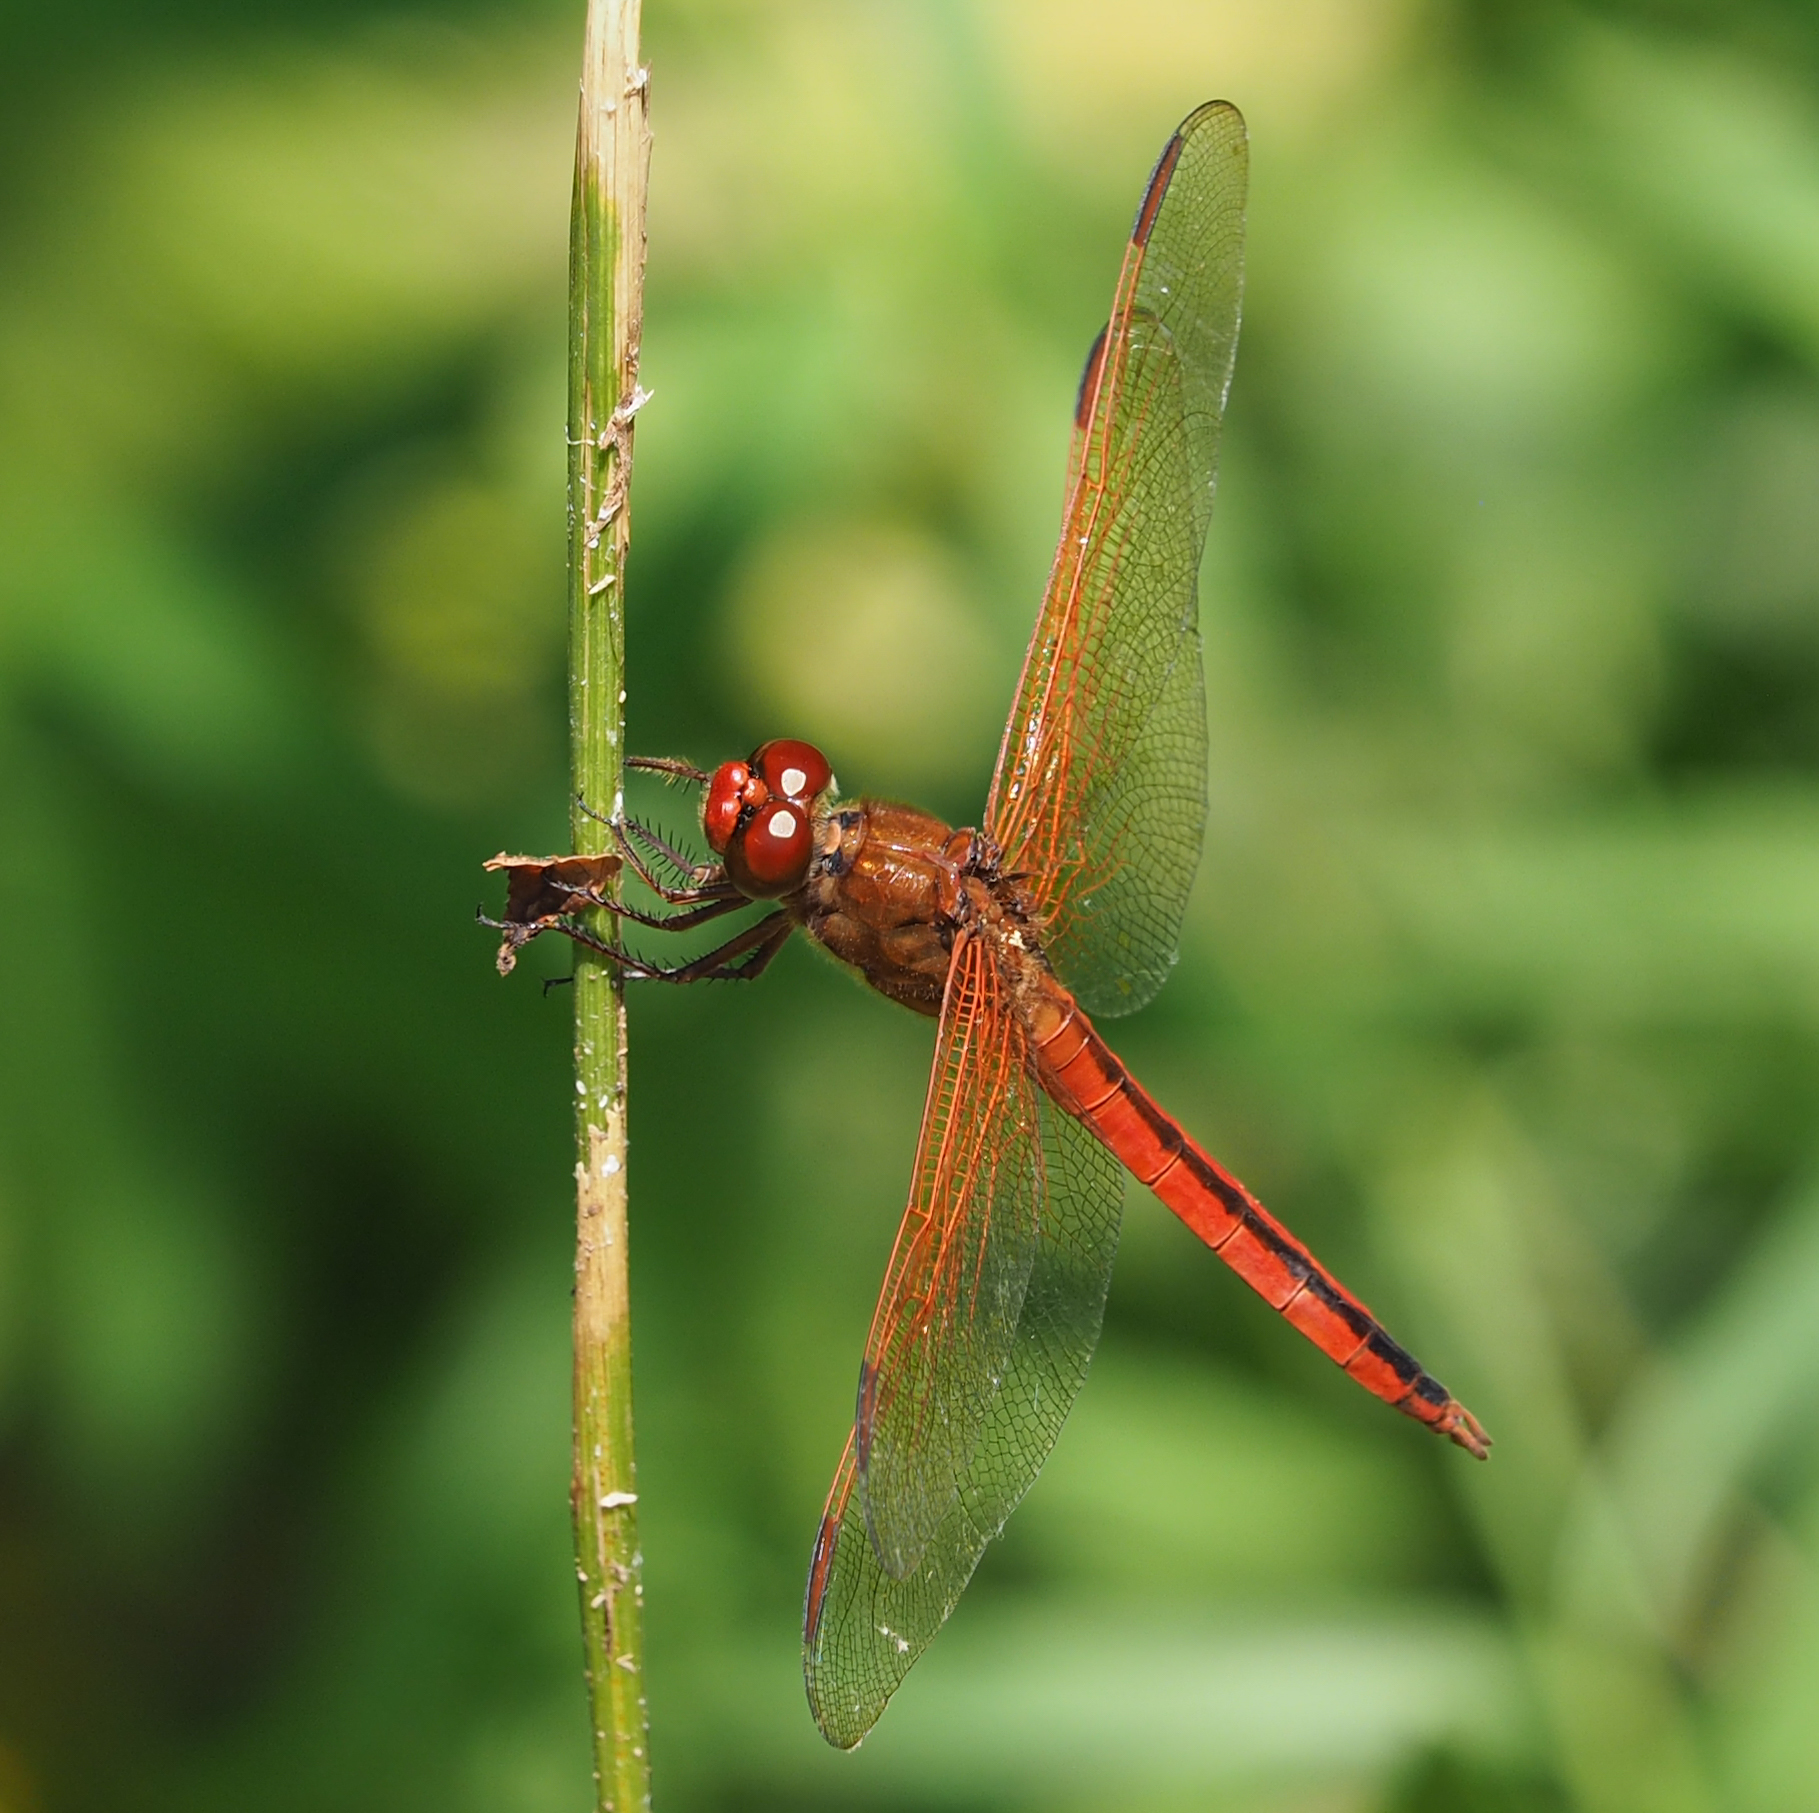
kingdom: Animalia
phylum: Arthropoda
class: Insecta
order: Odonata
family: Libellulidae
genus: Libellula
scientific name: Libellula needhami
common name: Needham's skimmer
